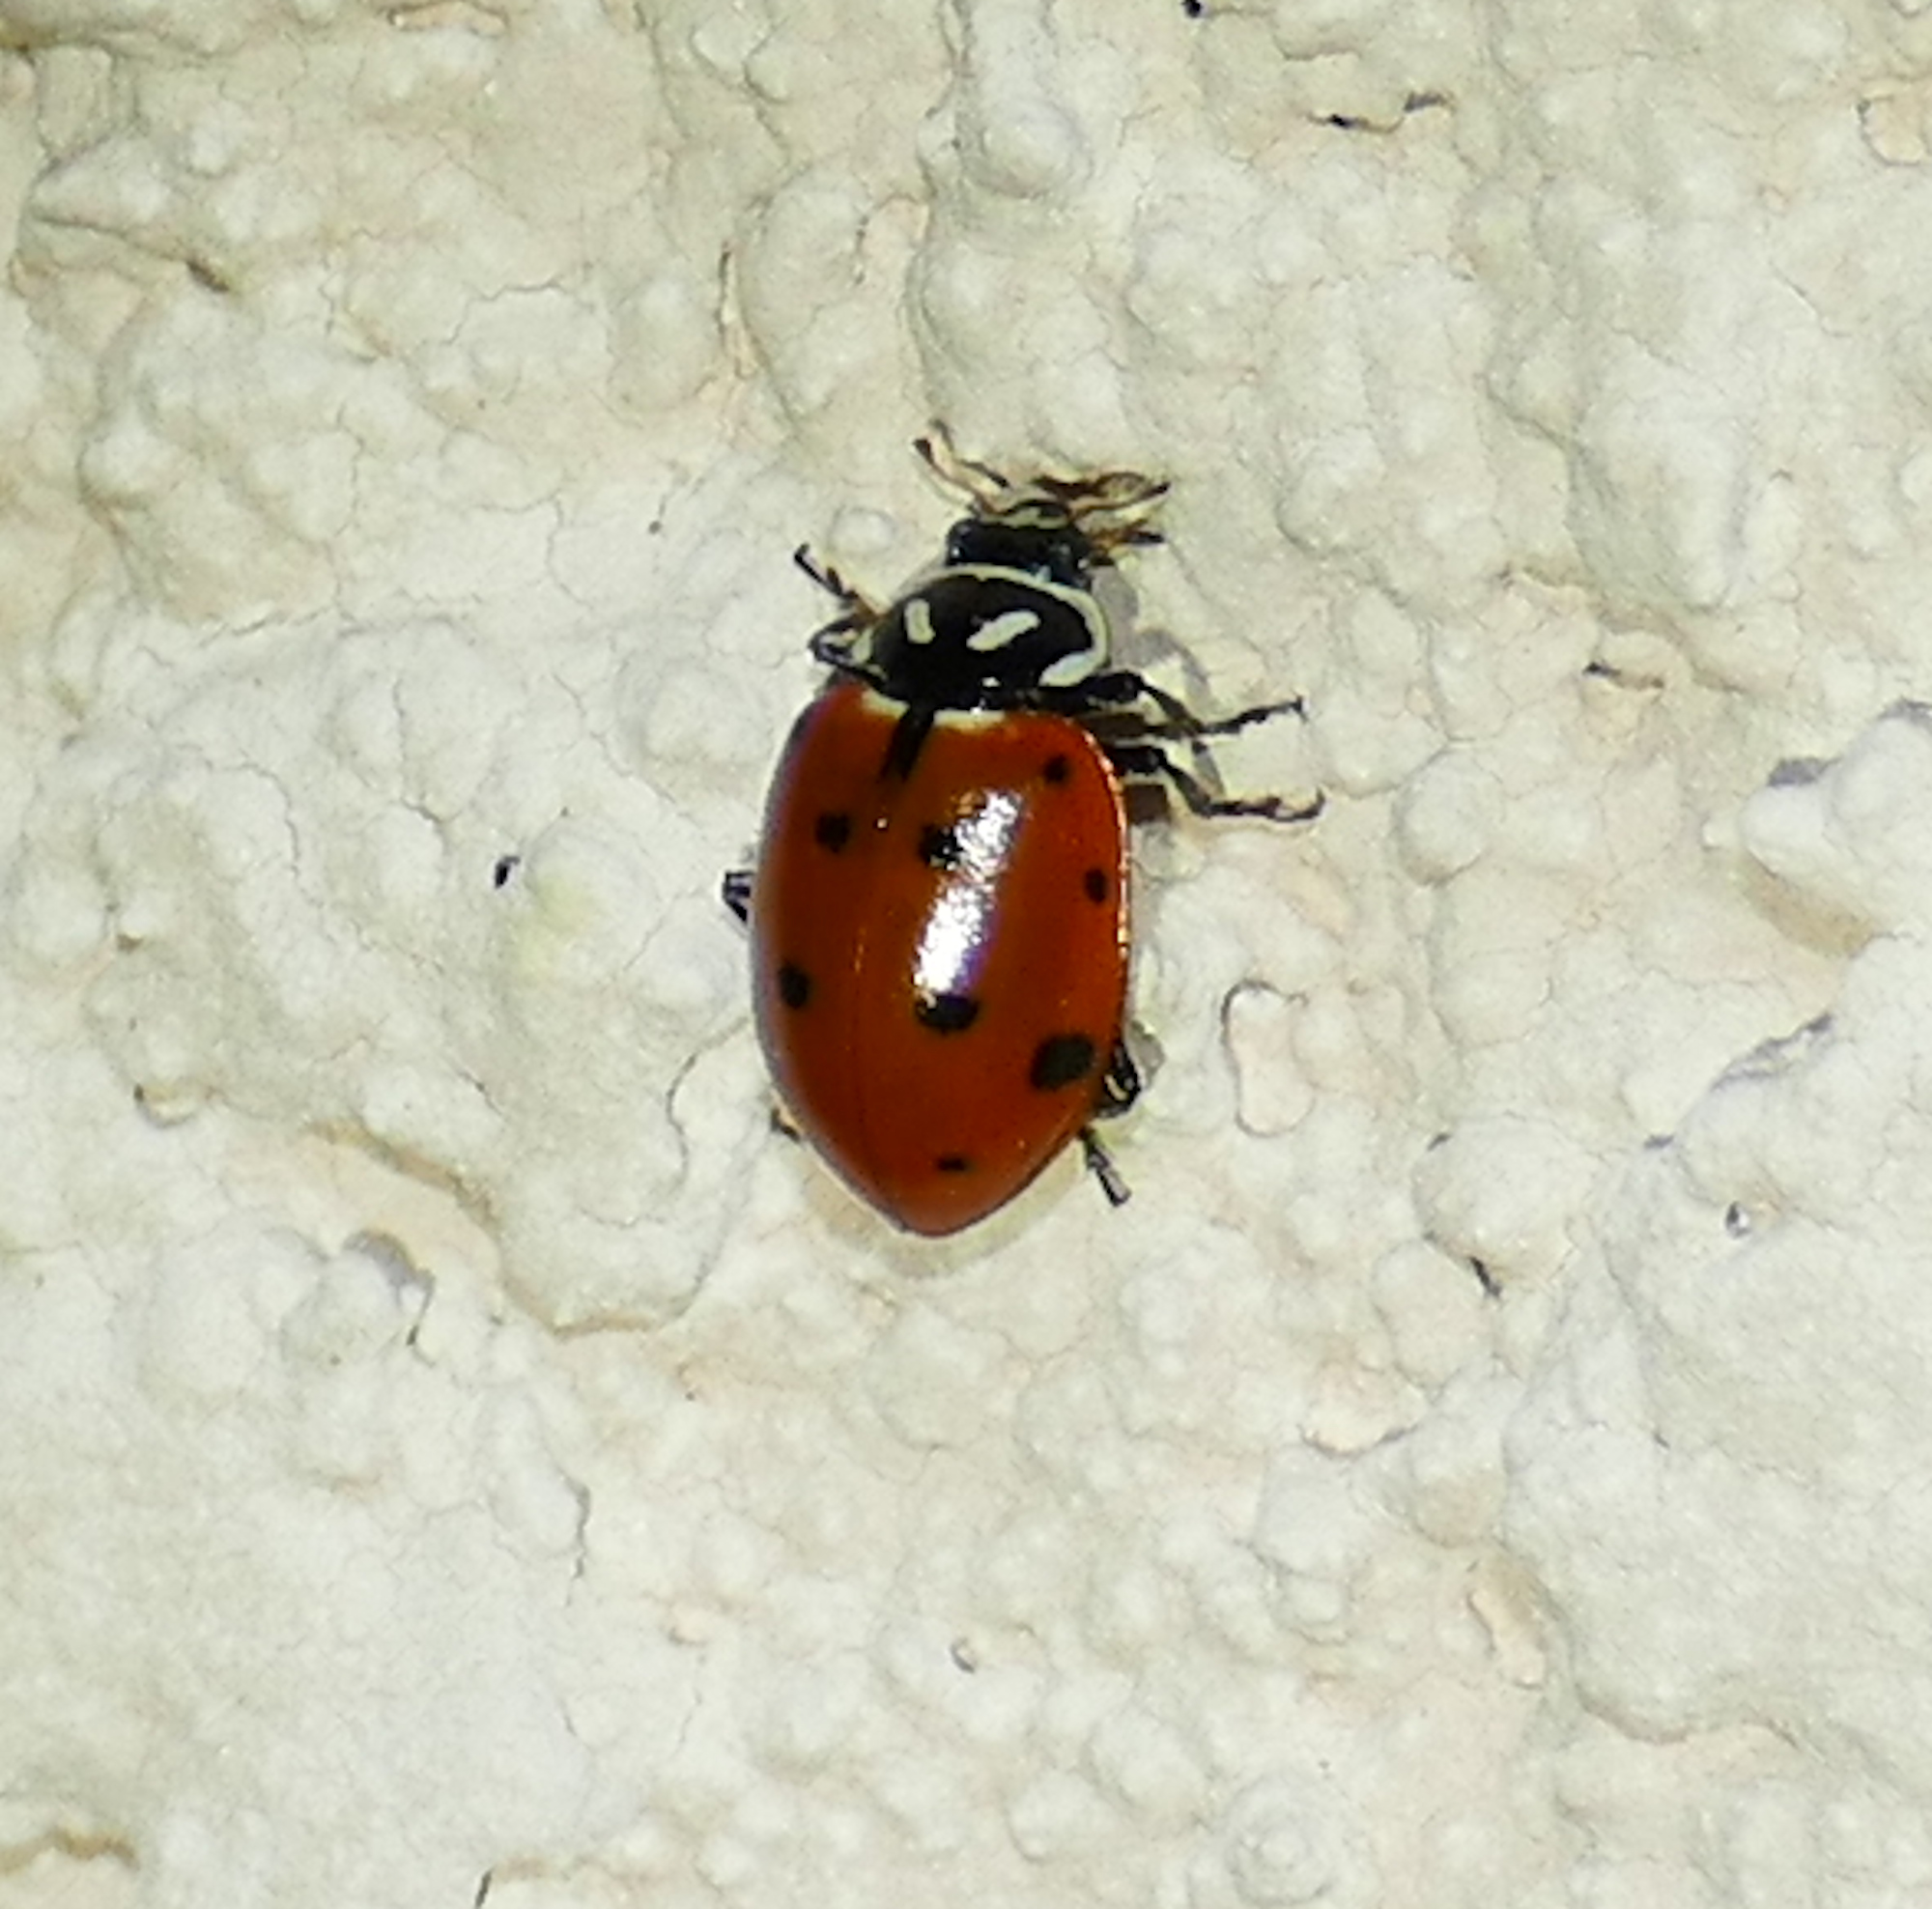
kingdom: Animalia
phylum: Arthropoda
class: Insecta
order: Coleoptera
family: Coccinellidae
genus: Hippodamia
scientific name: Hippodamia convergens
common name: Convergent lady beetle
